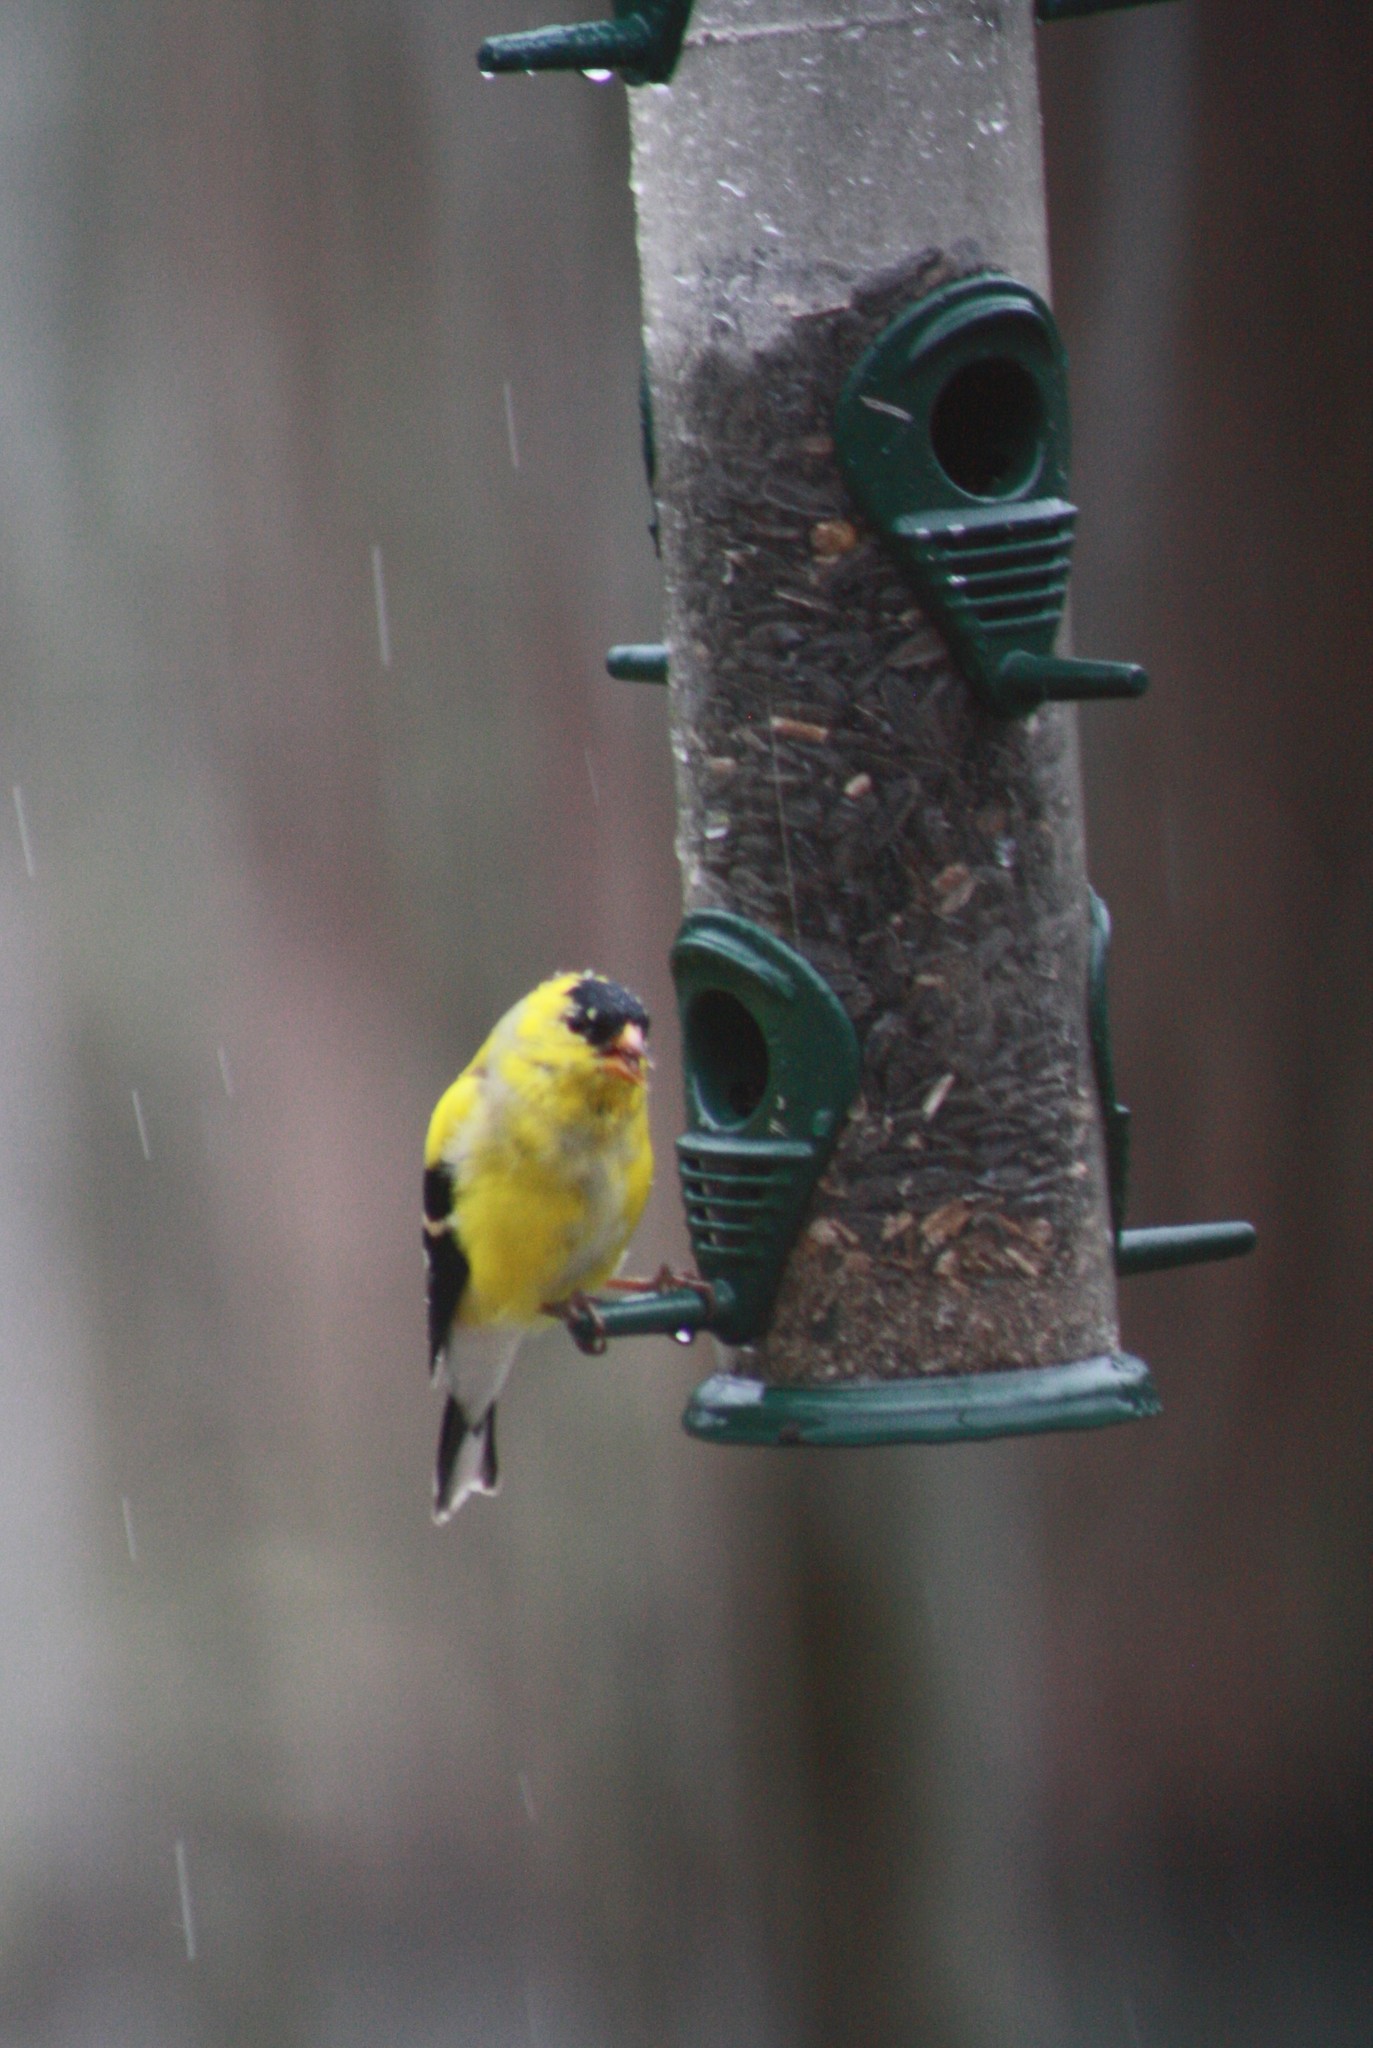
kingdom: Animalia
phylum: Chordata
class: Aves
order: Passeriformes
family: Fringillidae
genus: Spinus
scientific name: Spinus tristis
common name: American goldfinch
